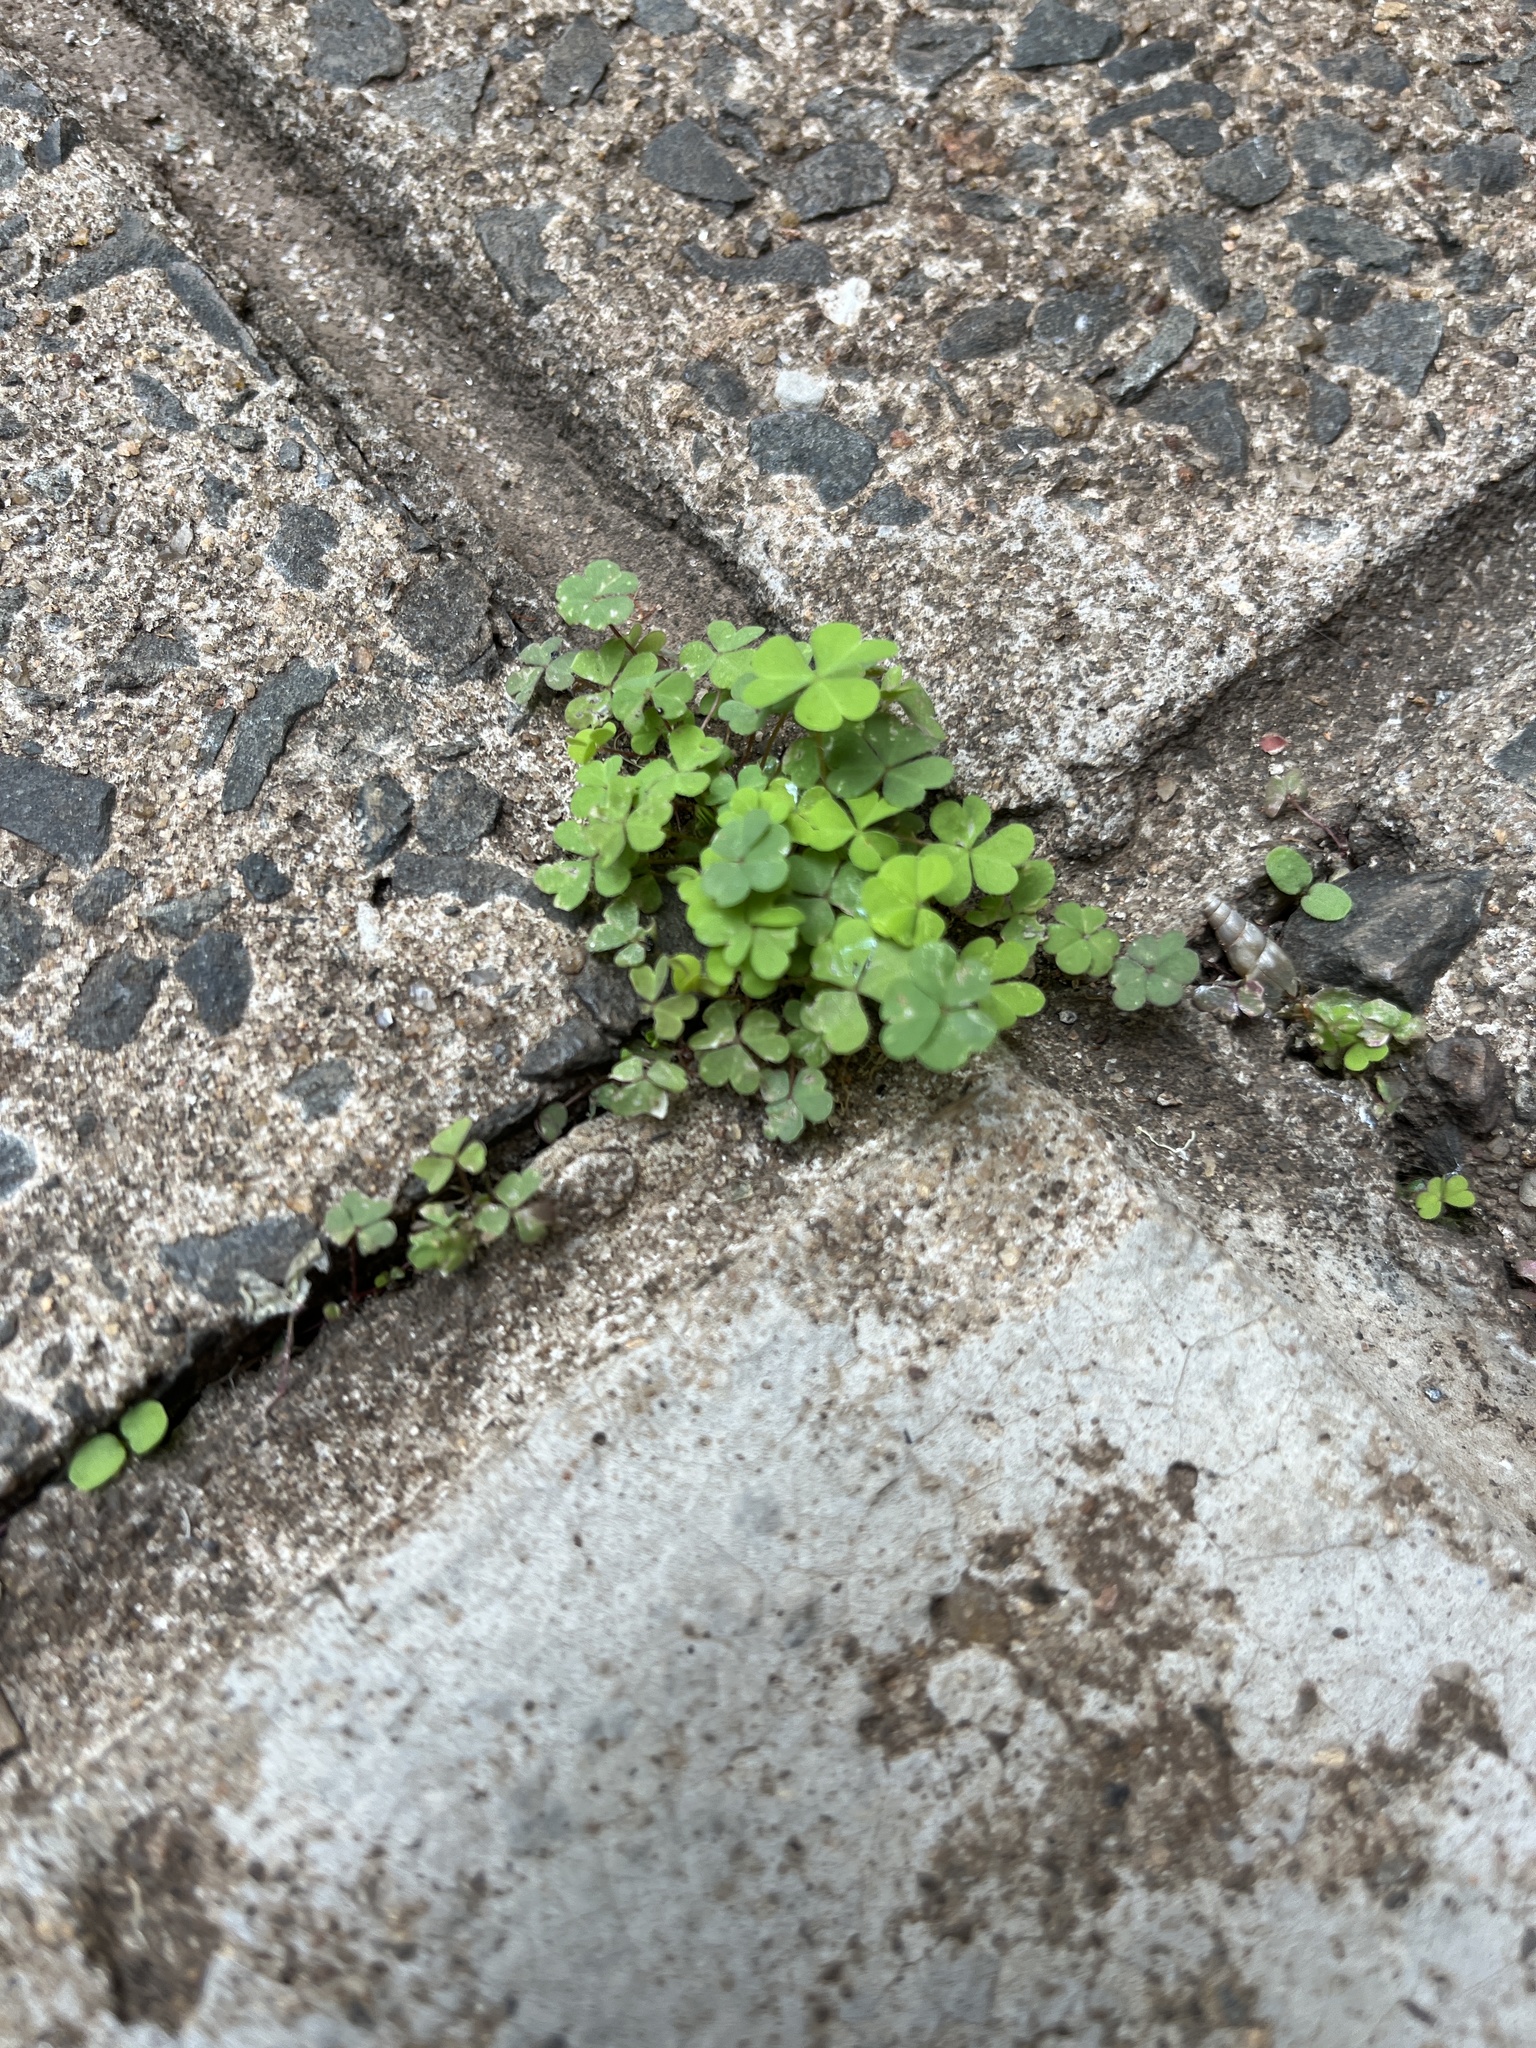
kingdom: Plantae
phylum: Tracheophyta
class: Magnoliopsida
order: Oxalidales
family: Oxalidaceae
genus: Oxalis
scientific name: Oxalis corniculata
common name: Procumbent yellow-sorrel
